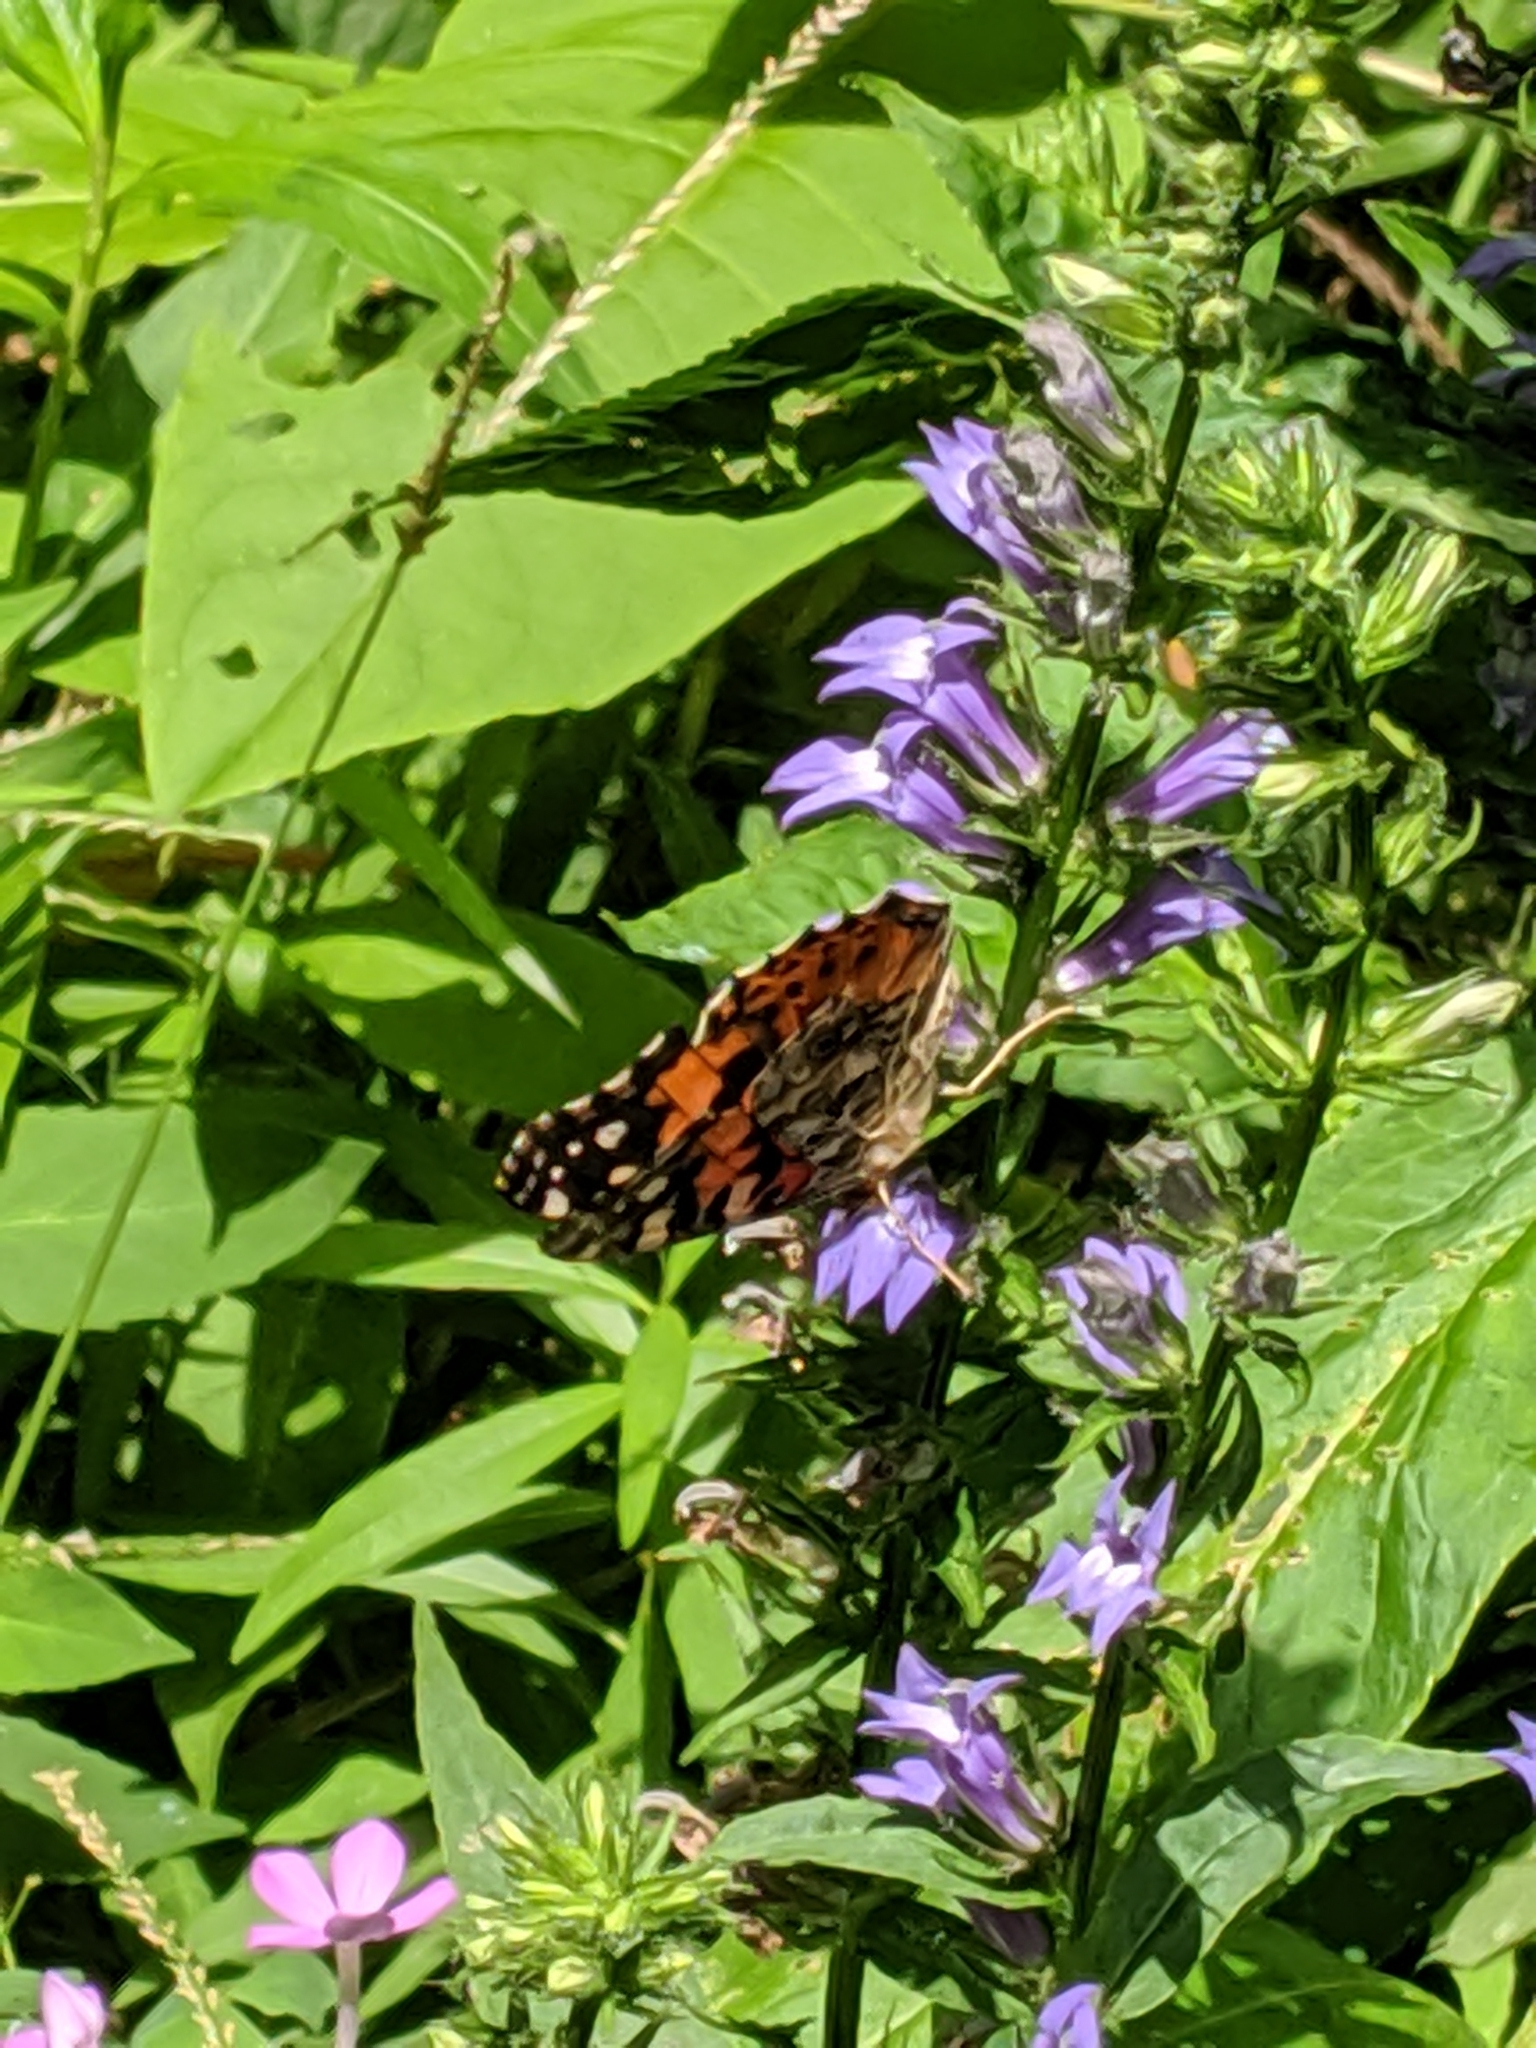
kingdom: Animalia
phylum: Arthropoda
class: Insecta
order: Lepidoptera
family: Nymphalidae
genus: Vanessa
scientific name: Vanessa cardui
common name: Painted lady
